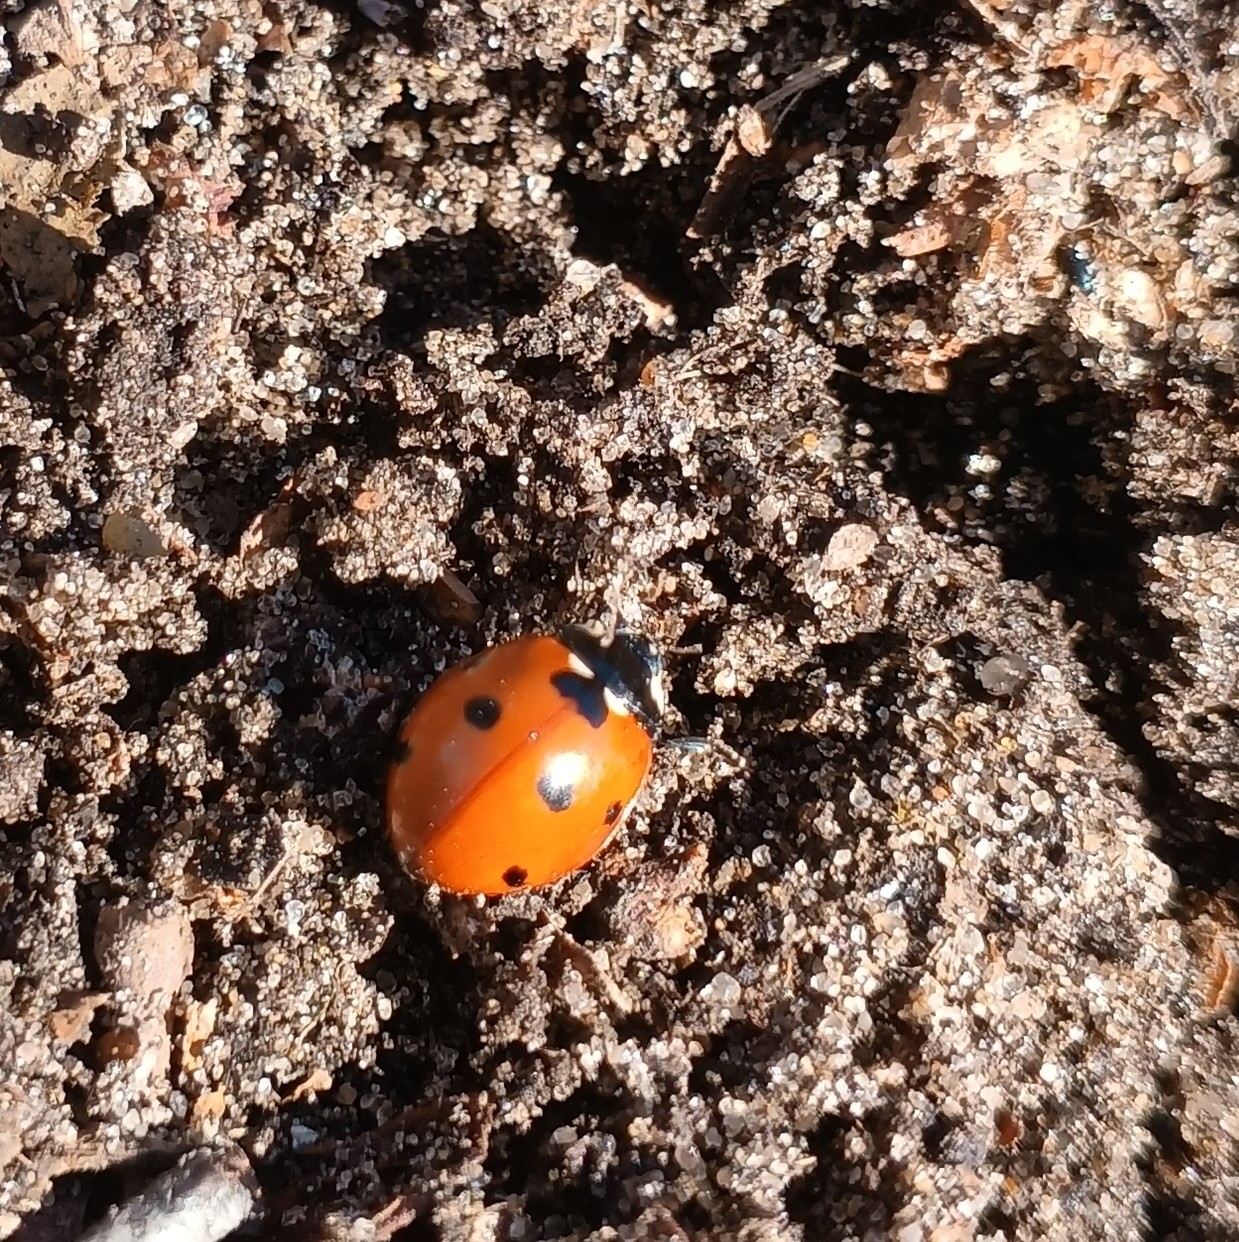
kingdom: Animalia
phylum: Arthropoda
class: Insecta
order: Coleoptera
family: Coccinellidae
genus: Coccinella
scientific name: Coccinella septempunctata
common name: Sevenspotted lady beetle
